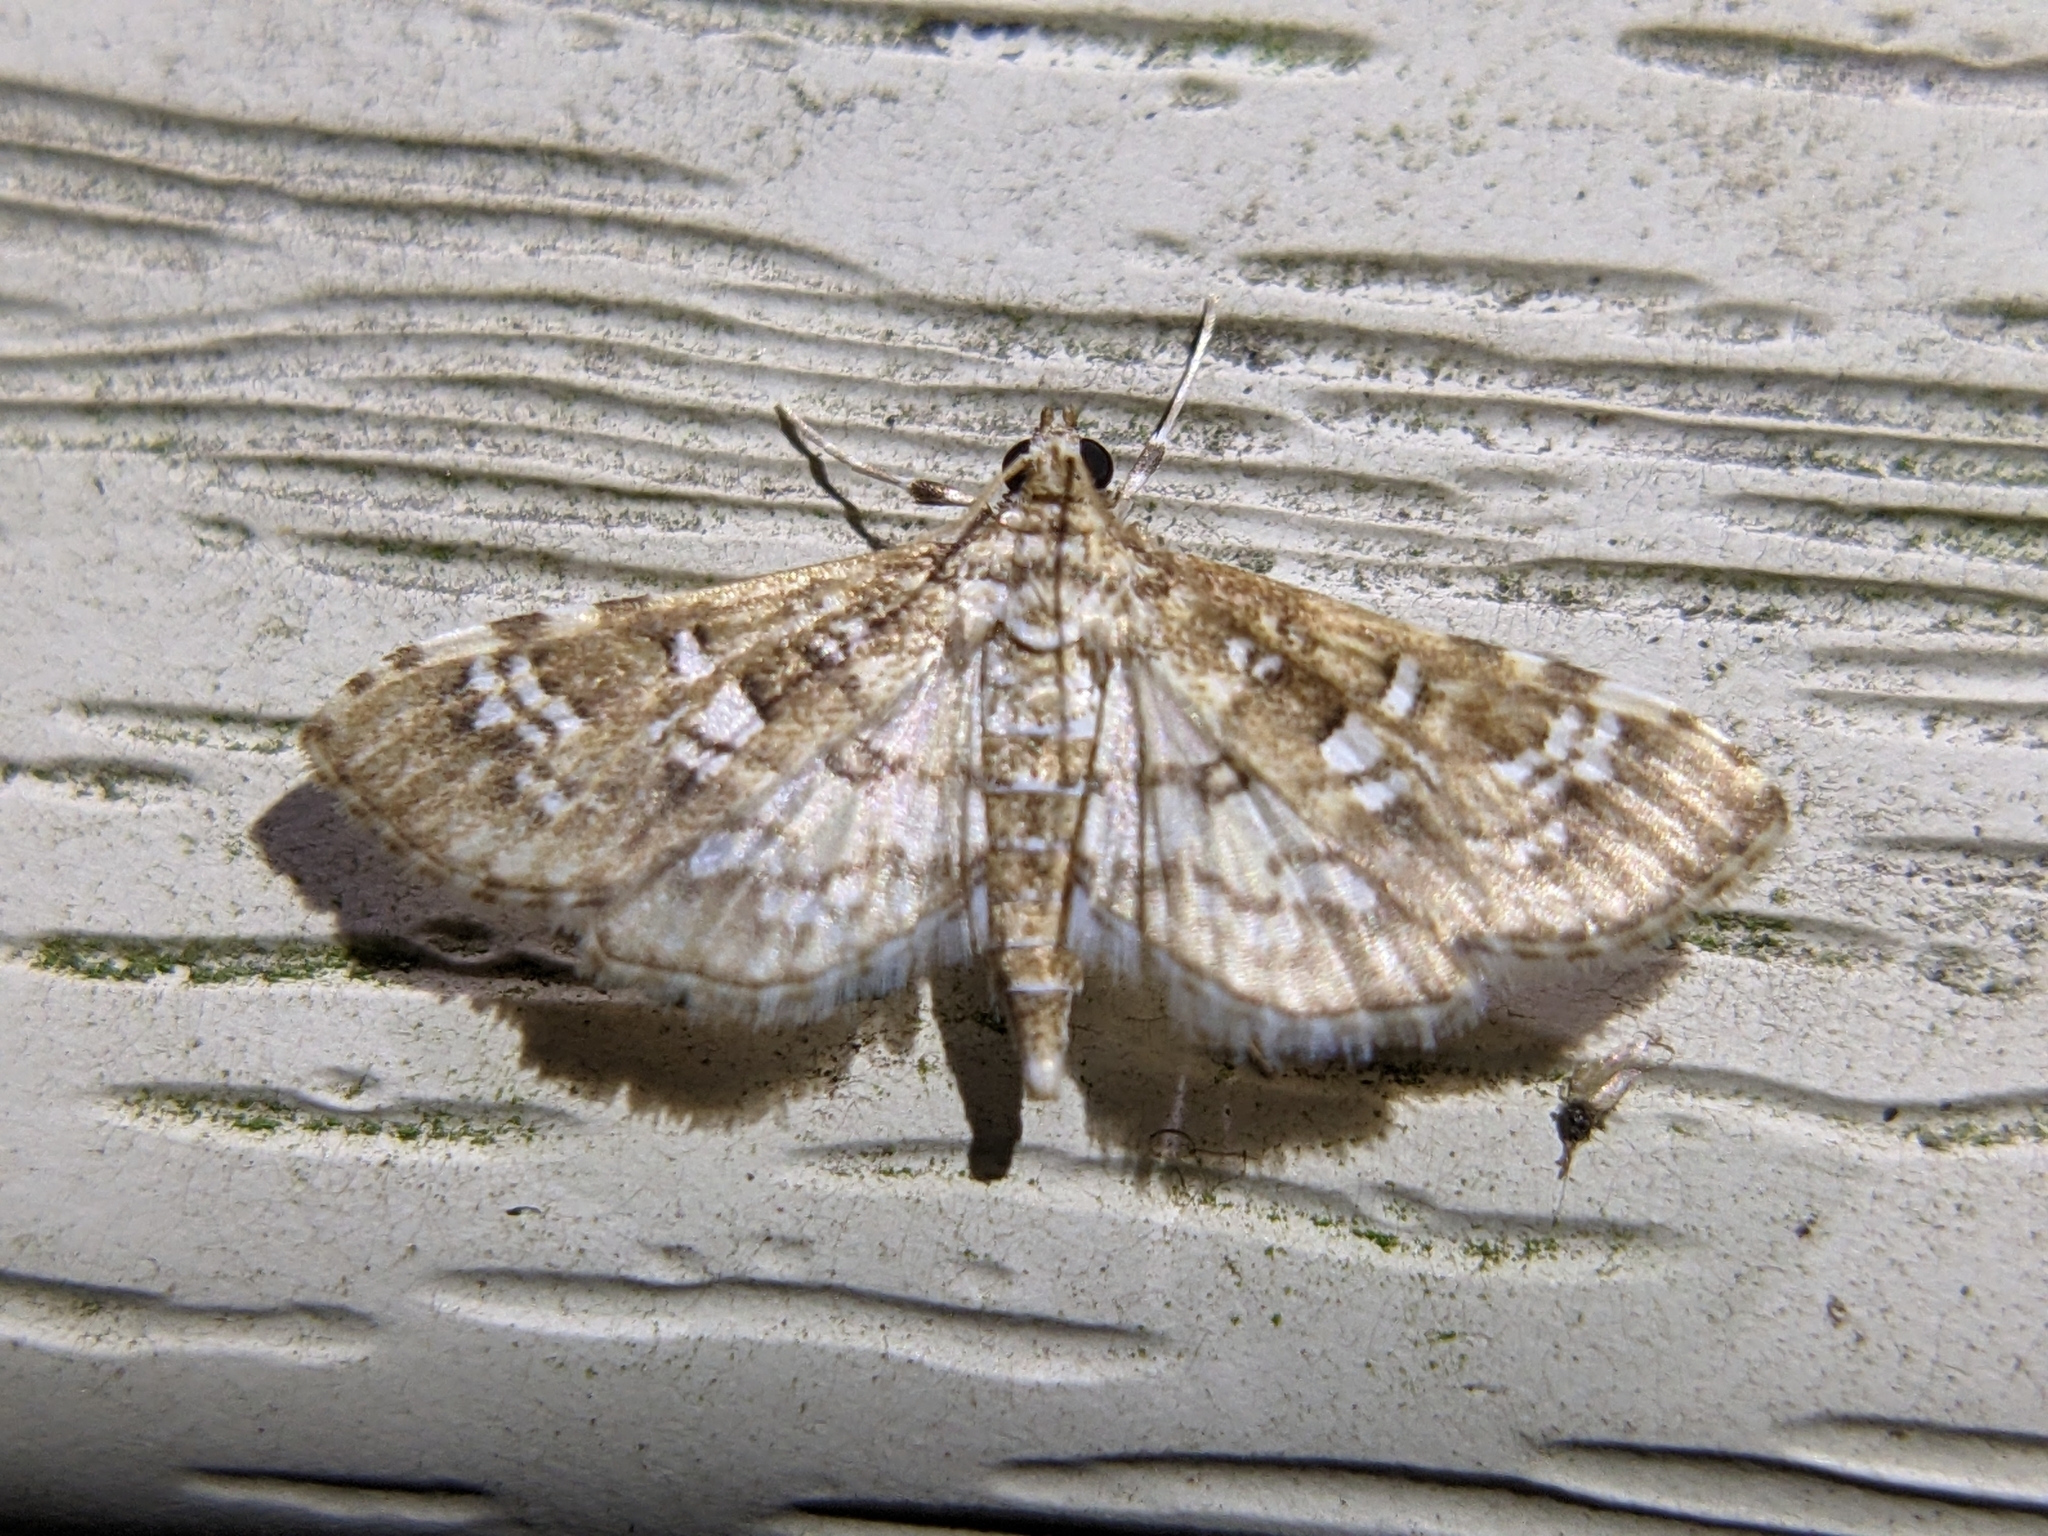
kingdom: Animalia
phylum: Arthropoda
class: Insecta
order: Lepidoptera
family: Crambidae
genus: Samea
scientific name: Samea multiplicalis
